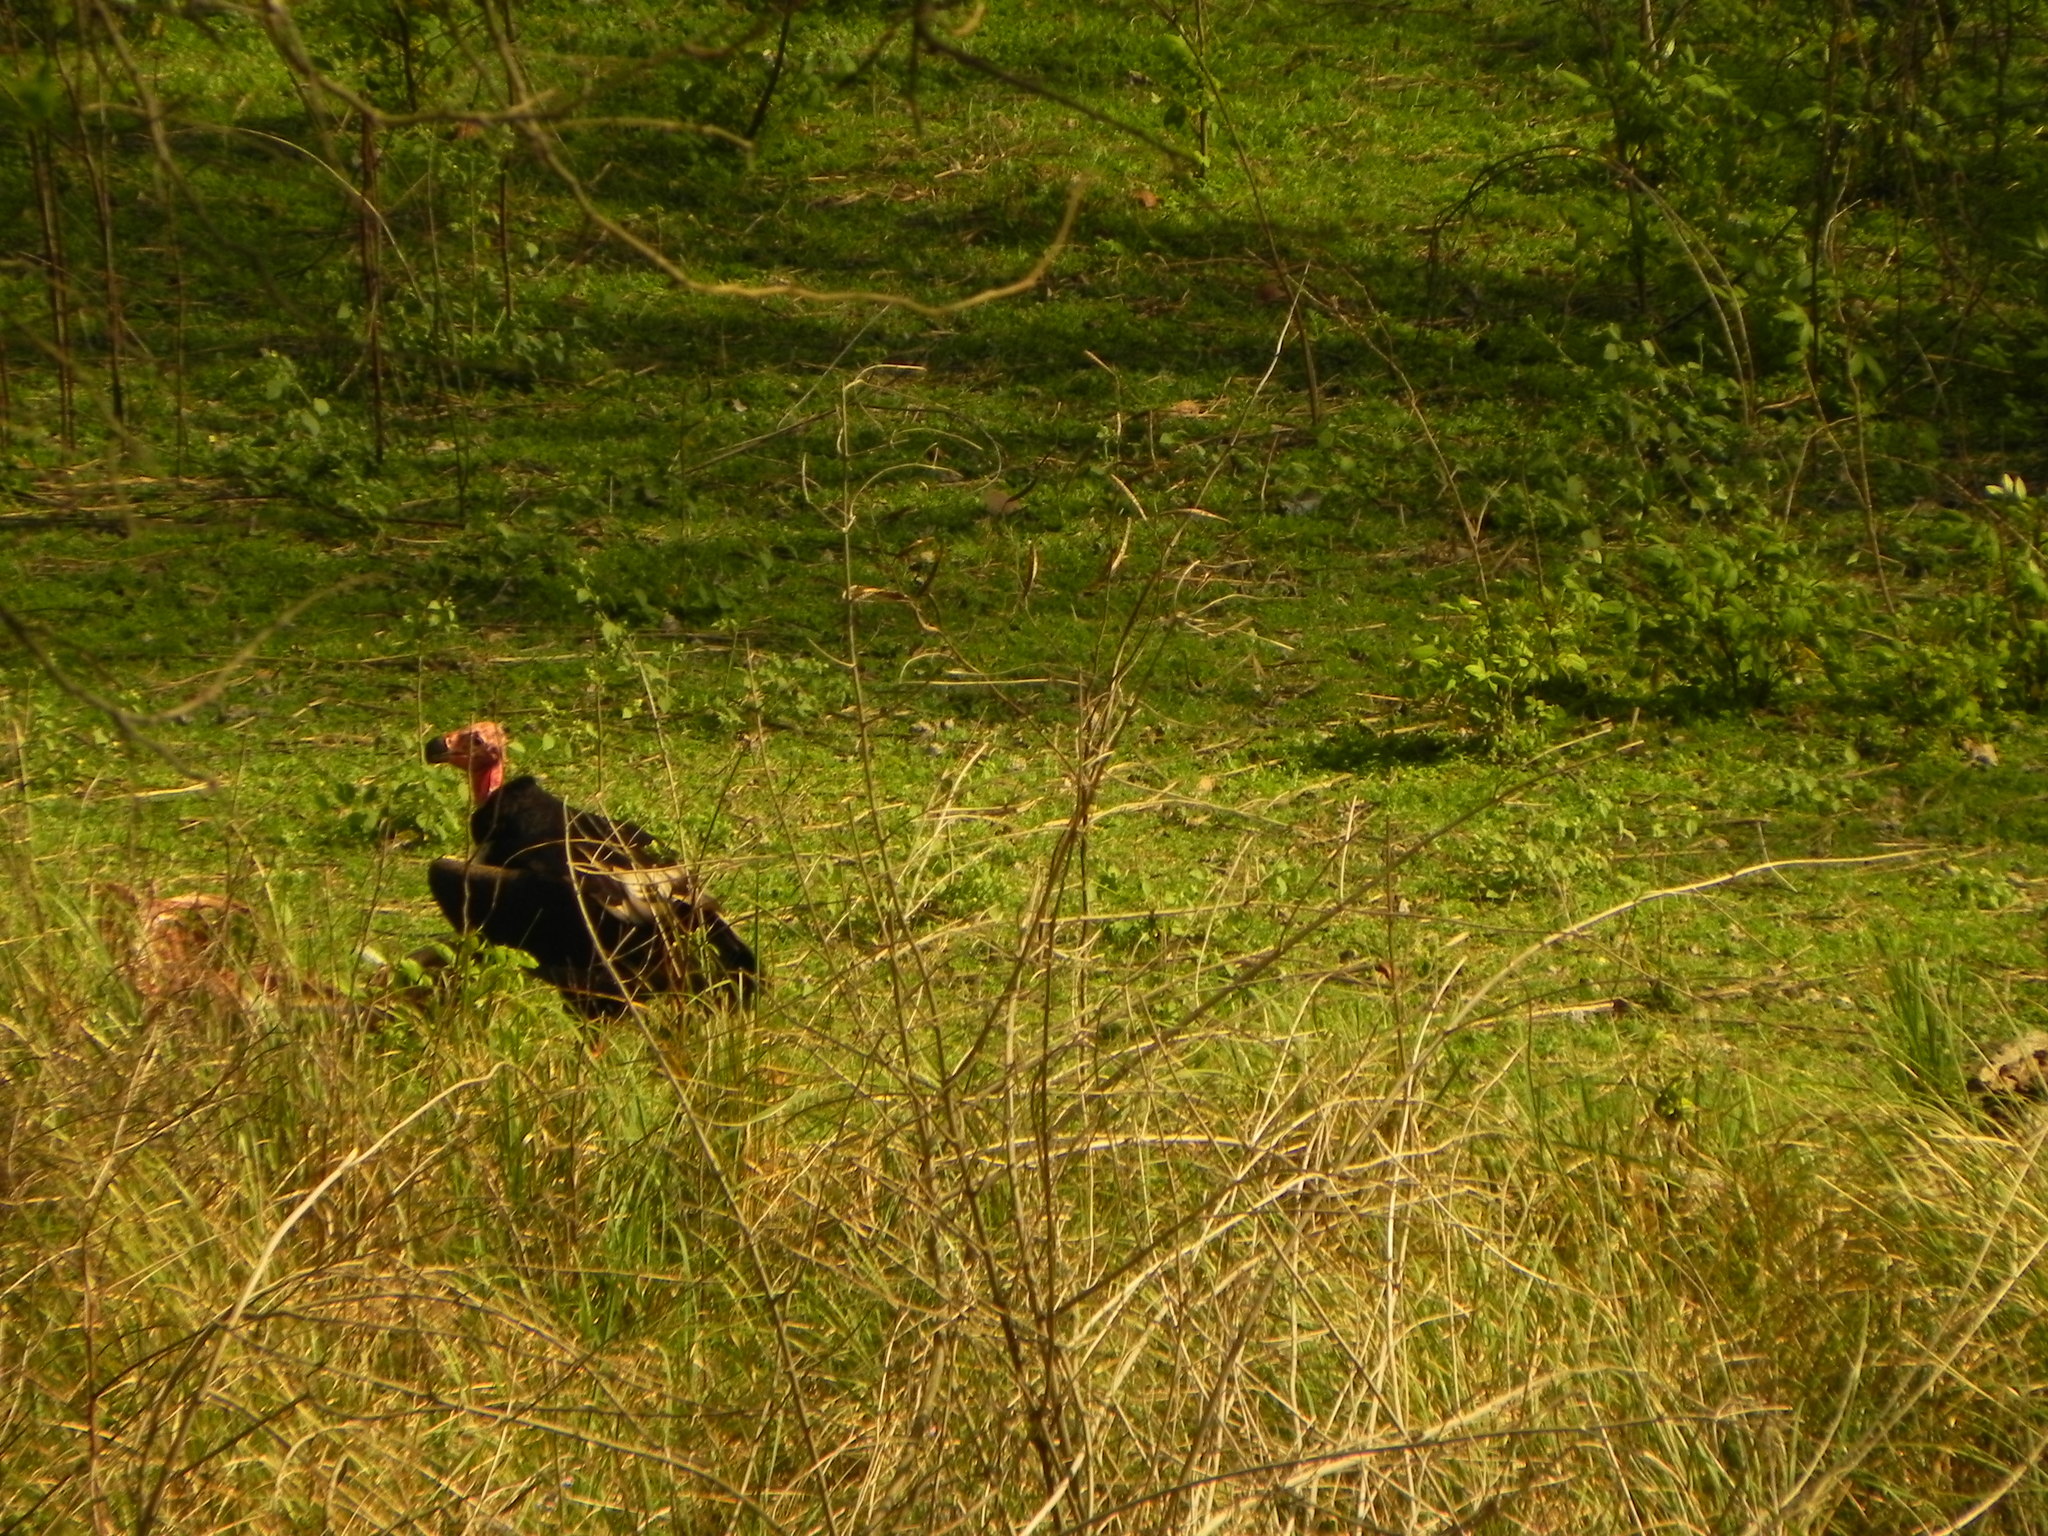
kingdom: Animalia
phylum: Chordata
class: Aves
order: Accipitriformes
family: Accipitridae
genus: Sarcogyps
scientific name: Sarcogyps calvus
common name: Red-headed vulture
